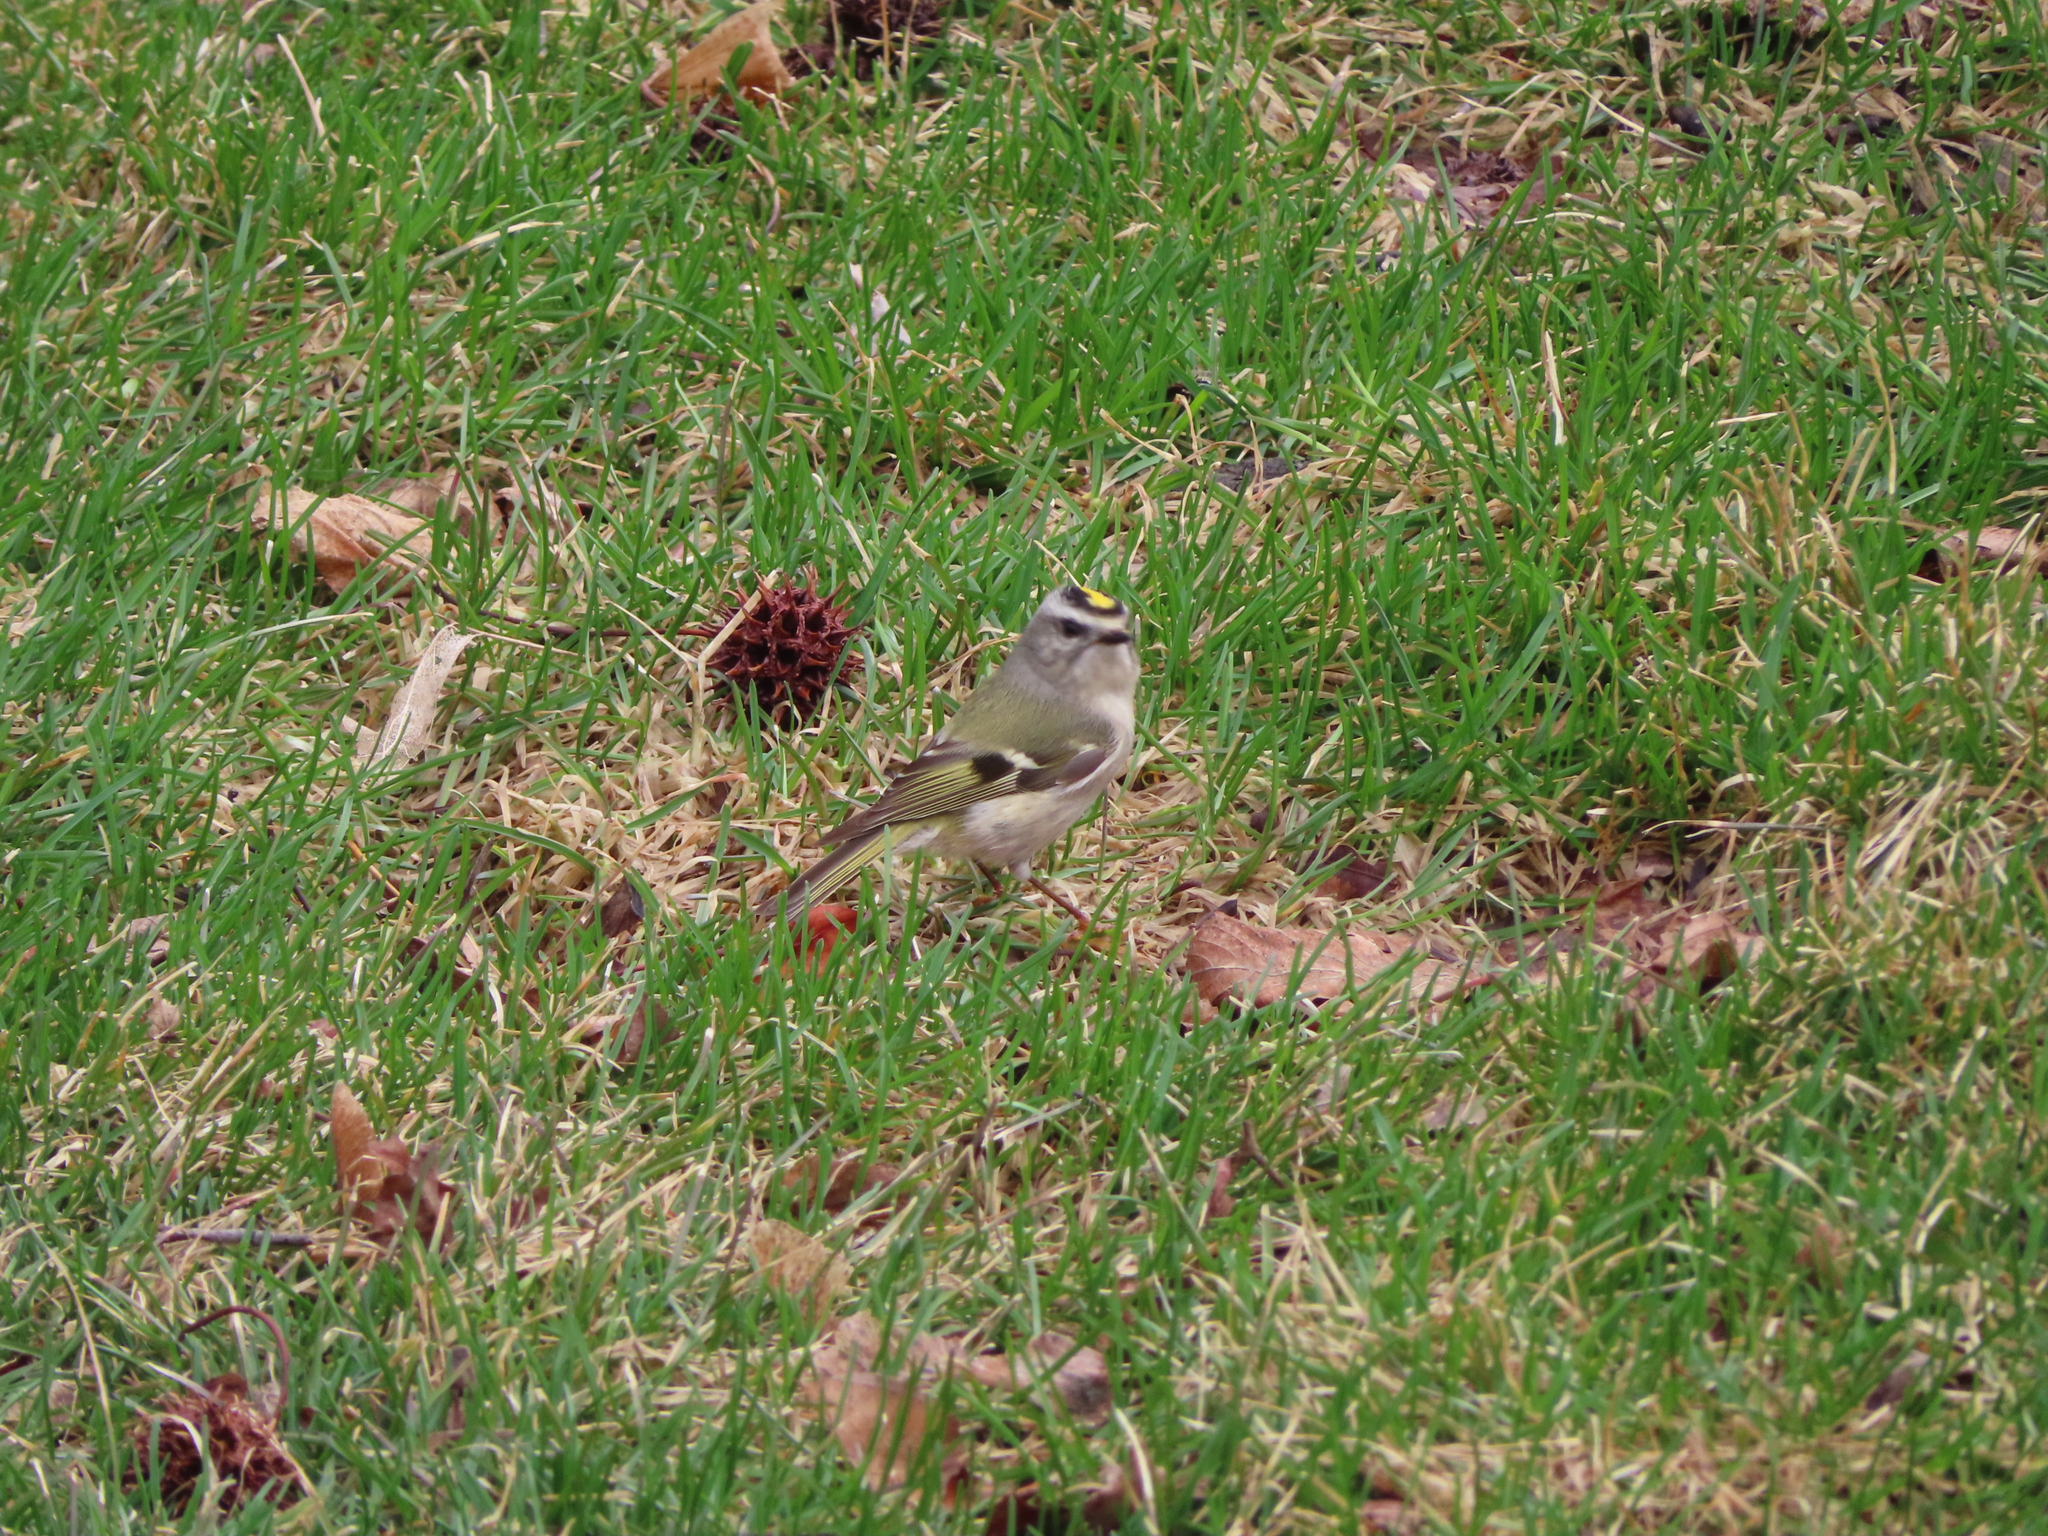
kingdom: Animalia
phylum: Chordata
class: Aves
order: Passeriformes
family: Regulidae
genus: Regulus
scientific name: Regulus satrapa
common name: Golden-crowned kinglet
